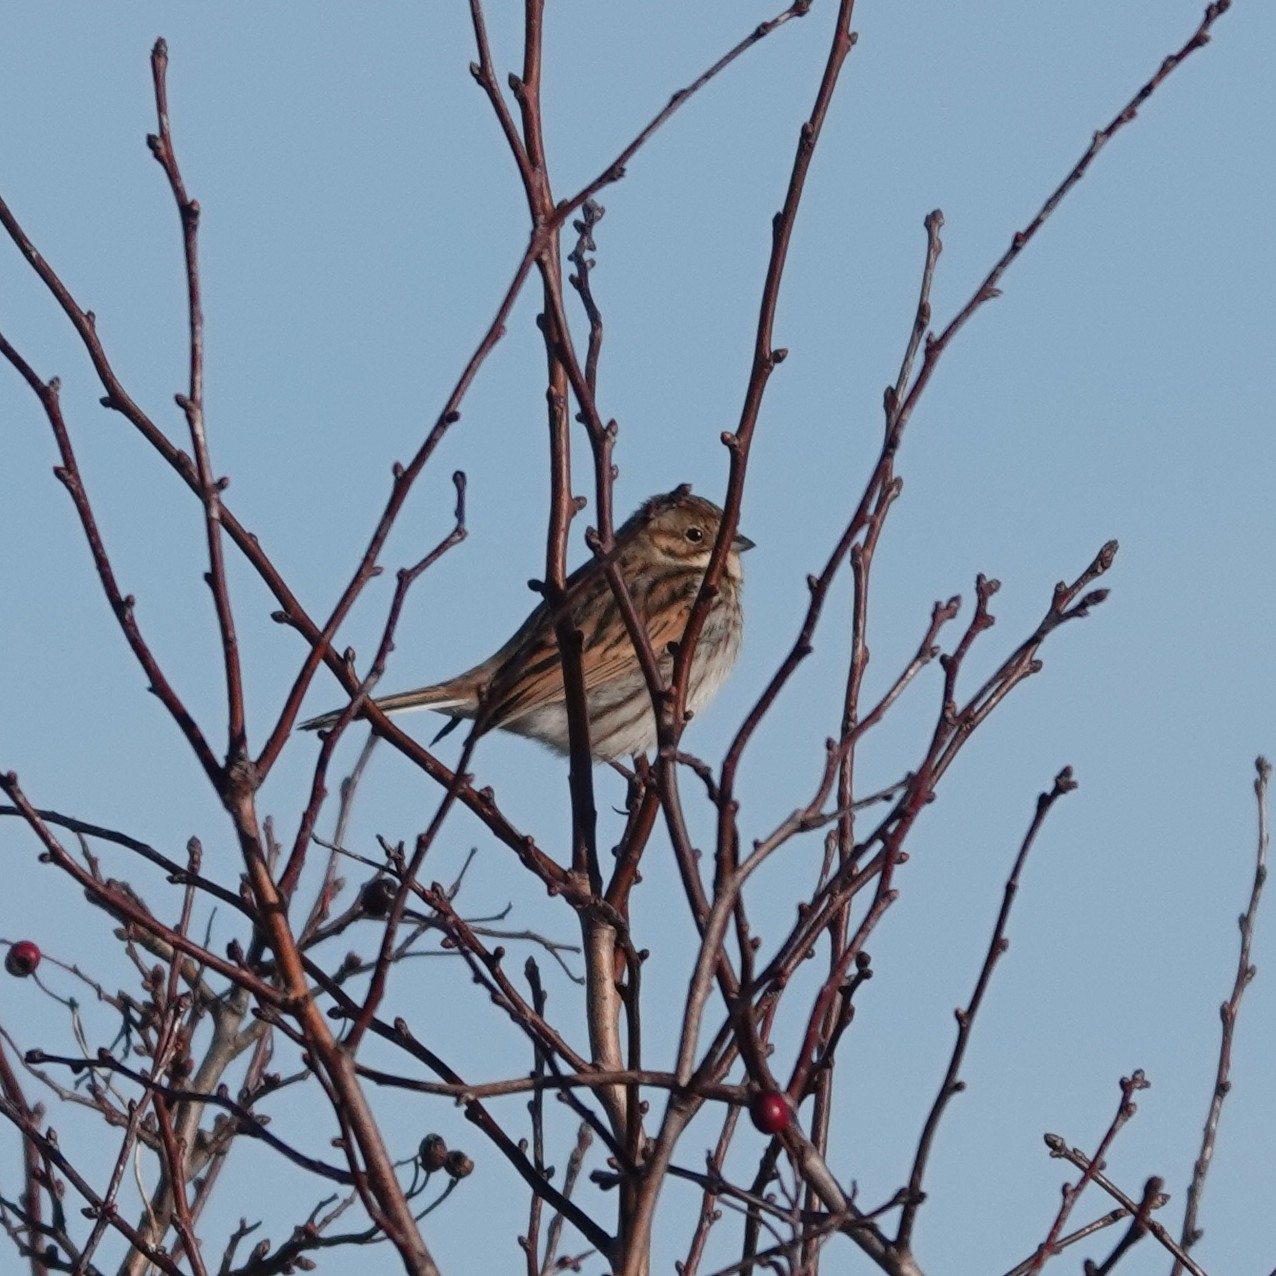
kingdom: Animalia
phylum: Chordata
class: Aves
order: Passeriformes
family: Emberizidae
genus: Emberiza
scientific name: Emberiza schoeniclus
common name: Reed bunting
